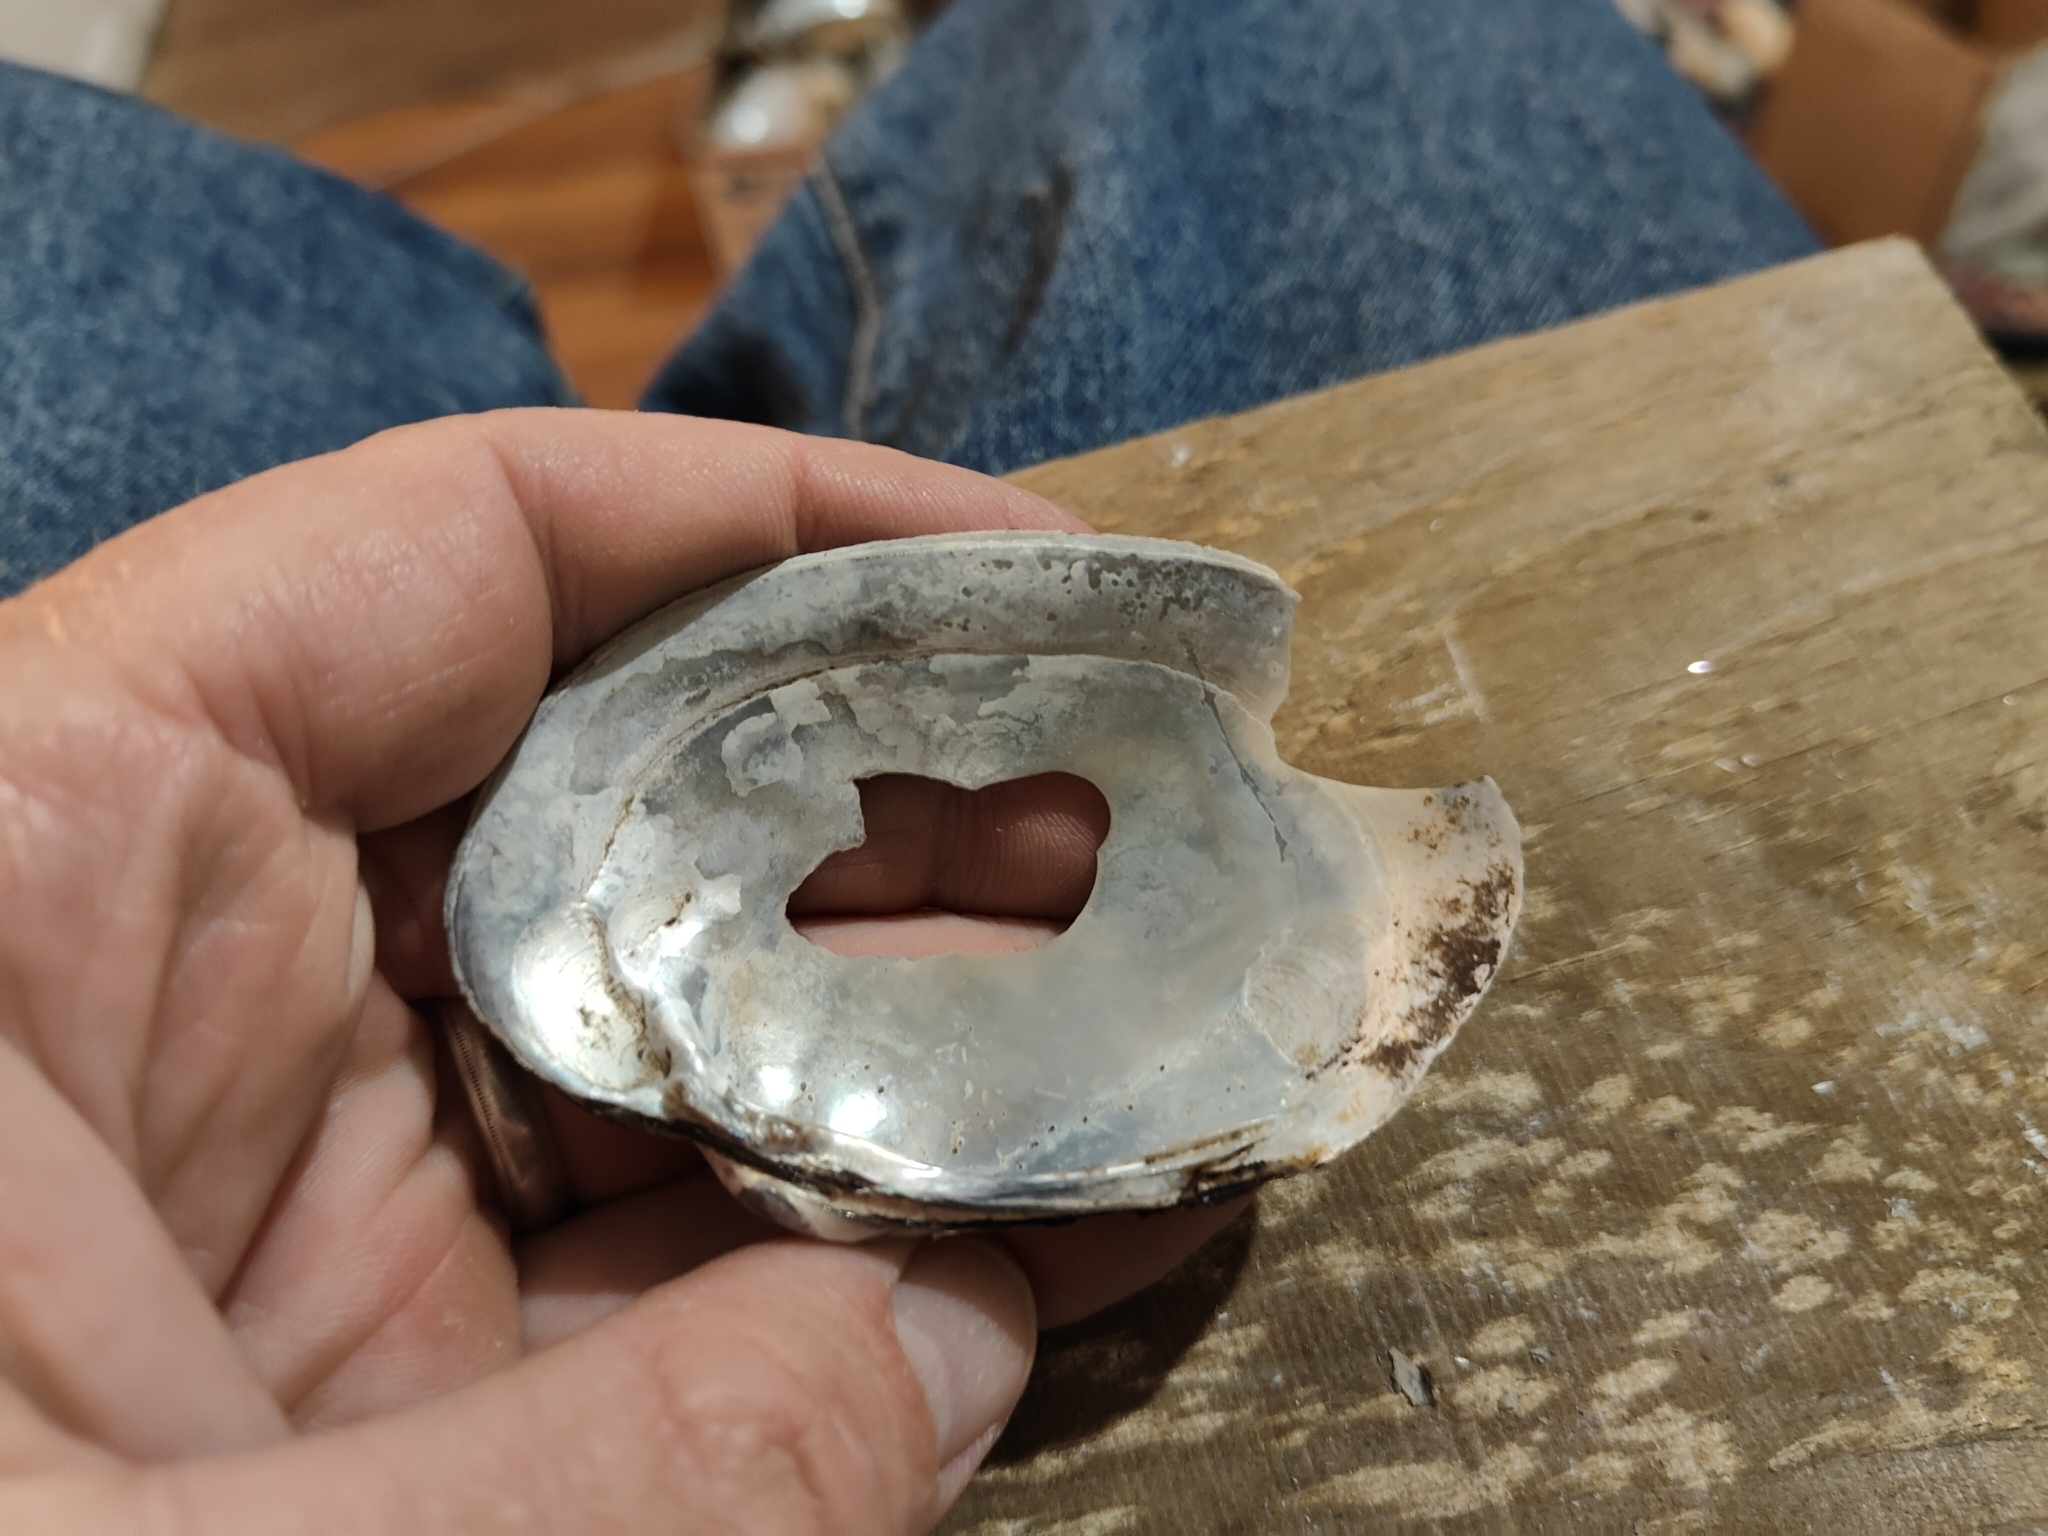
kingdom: Animalia
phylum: Mollusca
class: Bivalvia
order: Unionida
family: Unionidae
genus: Lampsilis
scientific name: Lampsilis cardium
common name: Plain pocketbook
